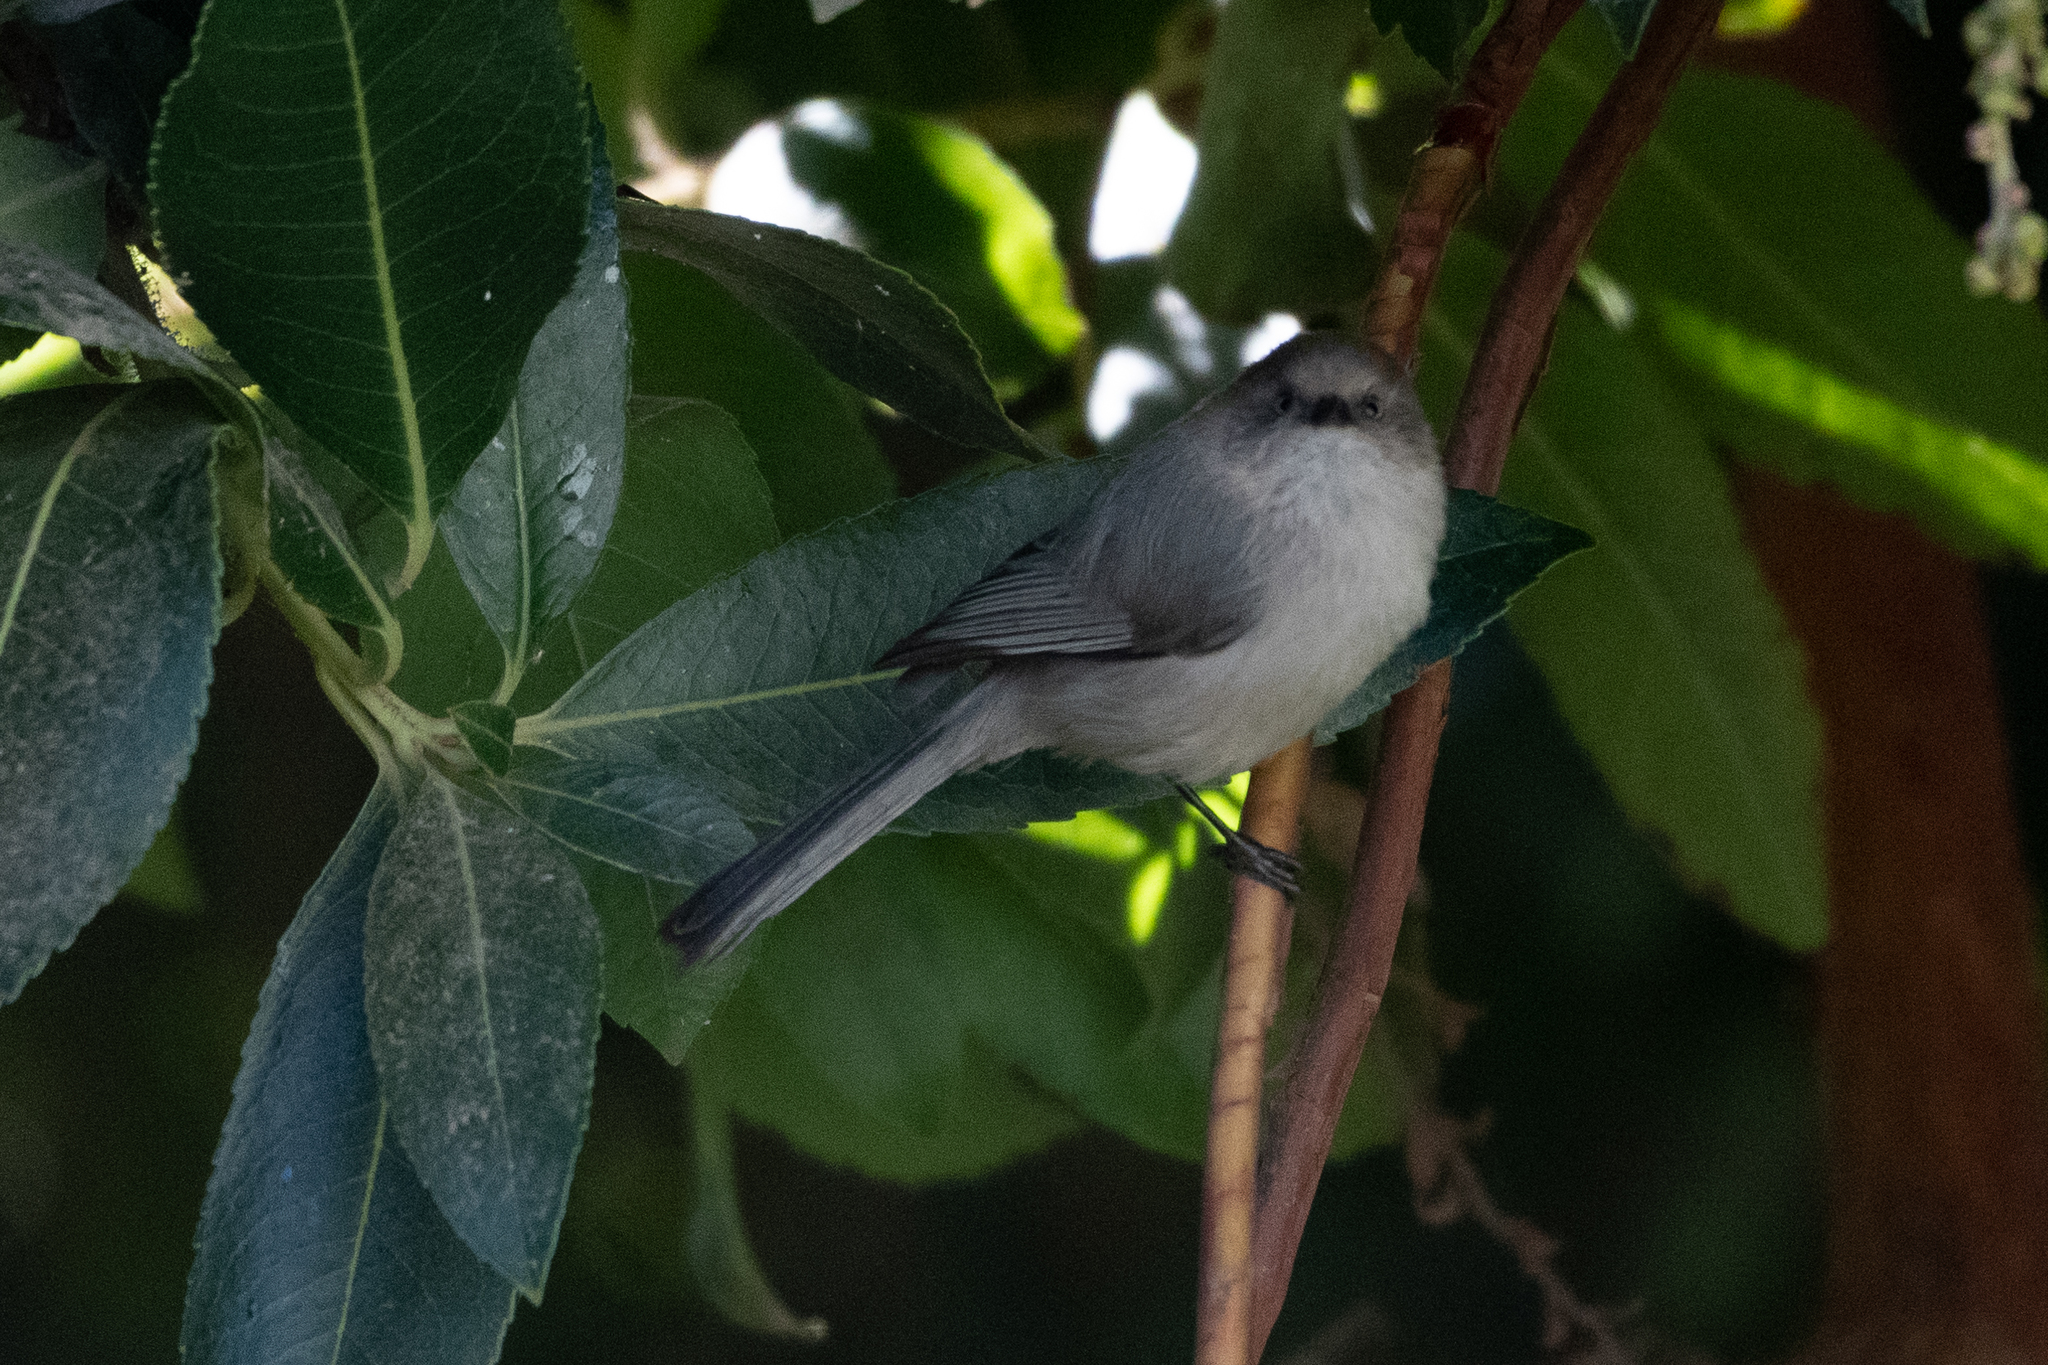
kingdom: Animalia
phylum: Chordata
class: Aves
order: Passeriformes
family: Aegithalidae
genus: Psaltriparus
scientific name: Psaltriparus minimus
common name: American bushtit
